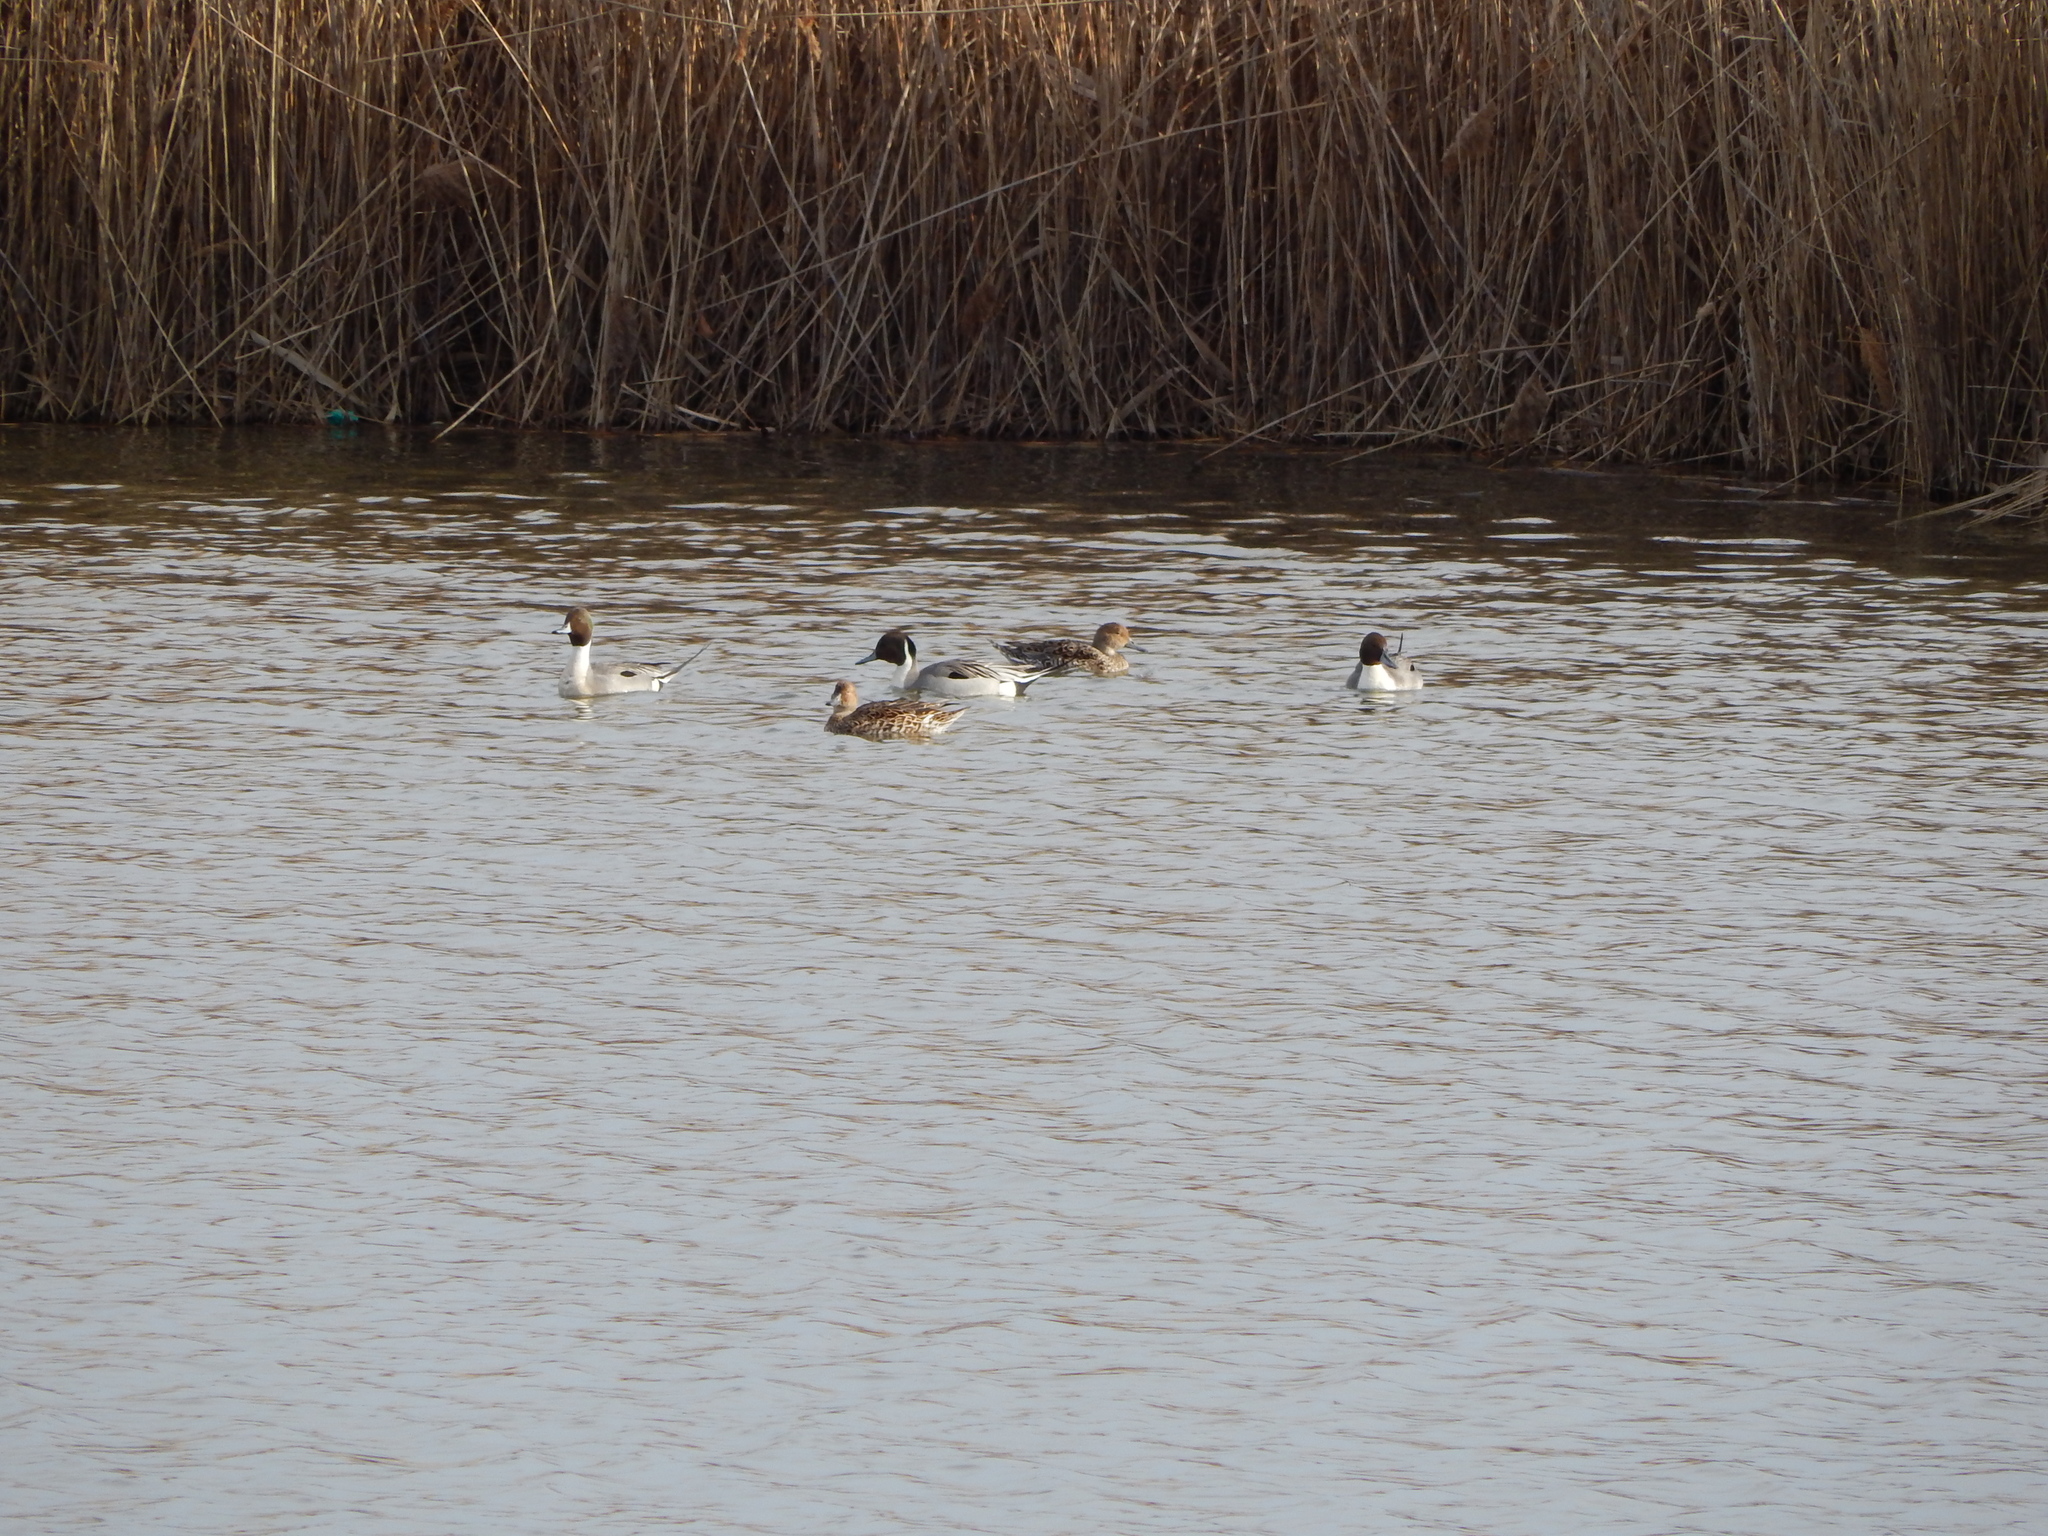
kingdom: Animalia
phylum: Chordata
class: Aves
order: Anseriformes
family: Anatidae
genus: Anas
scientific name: Anas acuta
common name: Northern pintail
